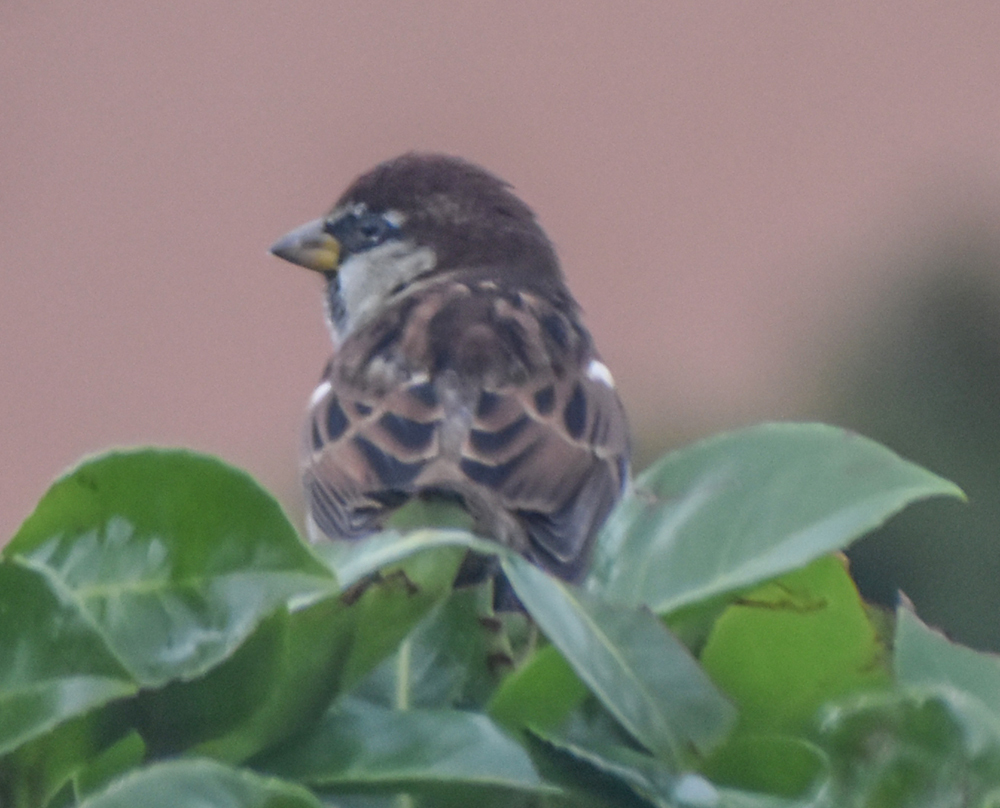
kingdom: Animalia
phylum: Chordata
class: Aves
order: Passeriformes
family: Passeridae
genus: Passer
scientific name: Passer italiae
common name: Italian sparrow
